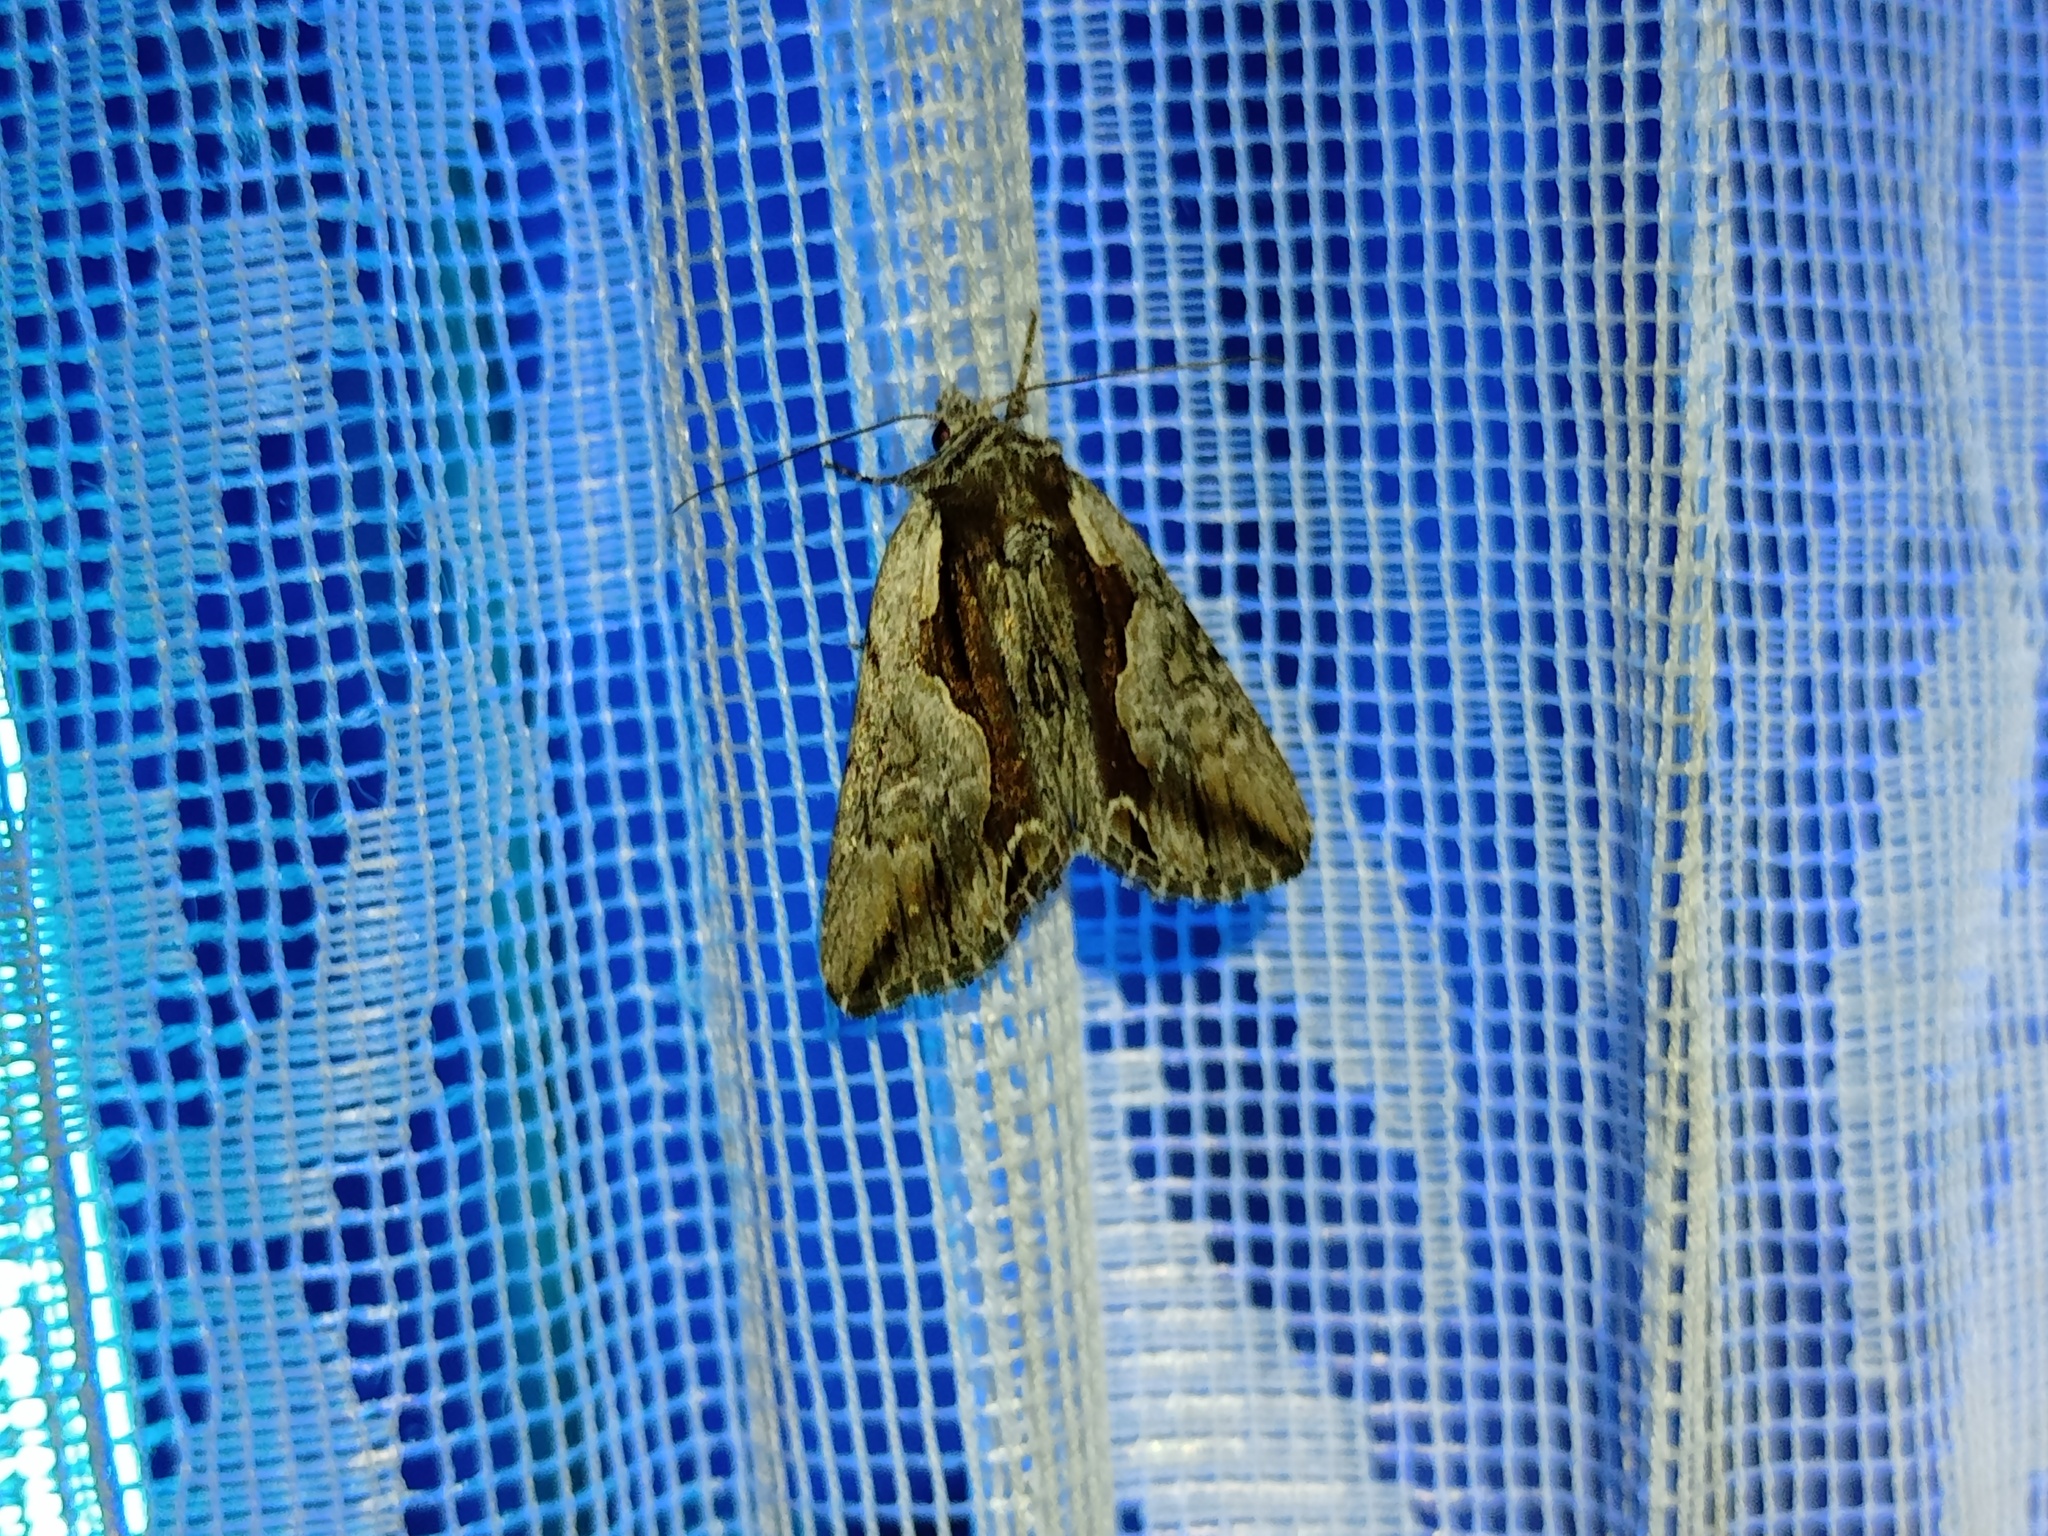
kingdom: Animalia
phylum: Arthropoda
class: Insecta
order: Lepidoptera
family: Noctuidae
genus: Calliergis
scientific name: Calliergis ramosa
